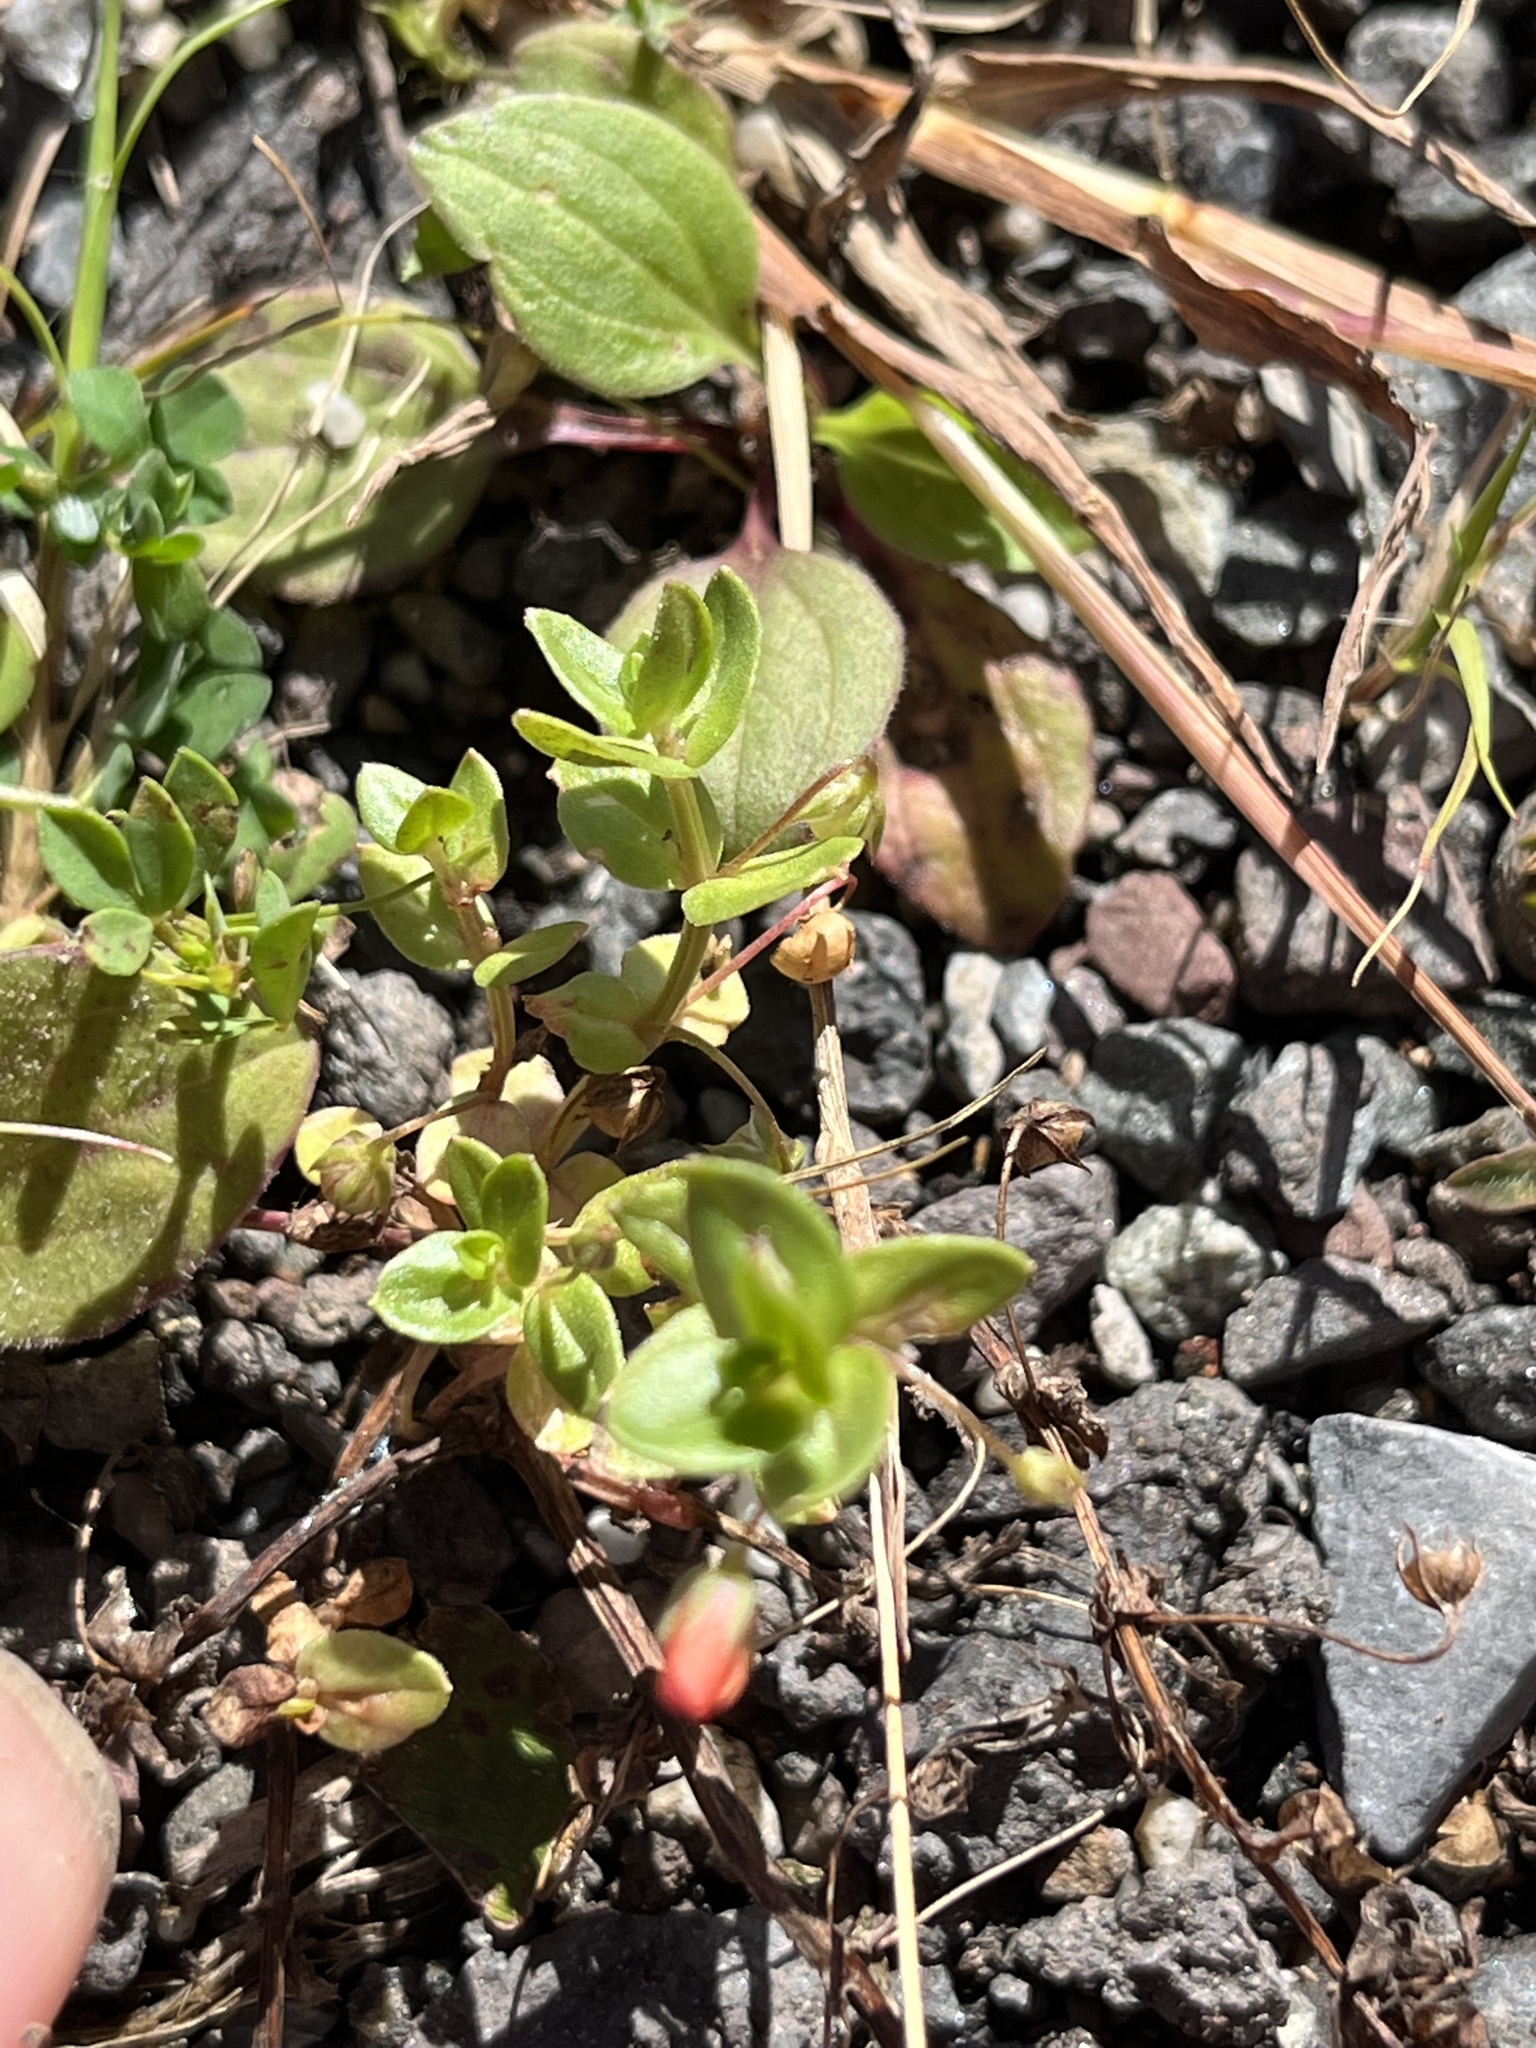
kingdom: Plantae
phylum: Tracheophyta
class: Magnoliopsida
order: Ericales
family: Primulaceae
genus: Lysimachia
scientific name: Lysimachia arvensis
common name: Scarlet pimpernel
